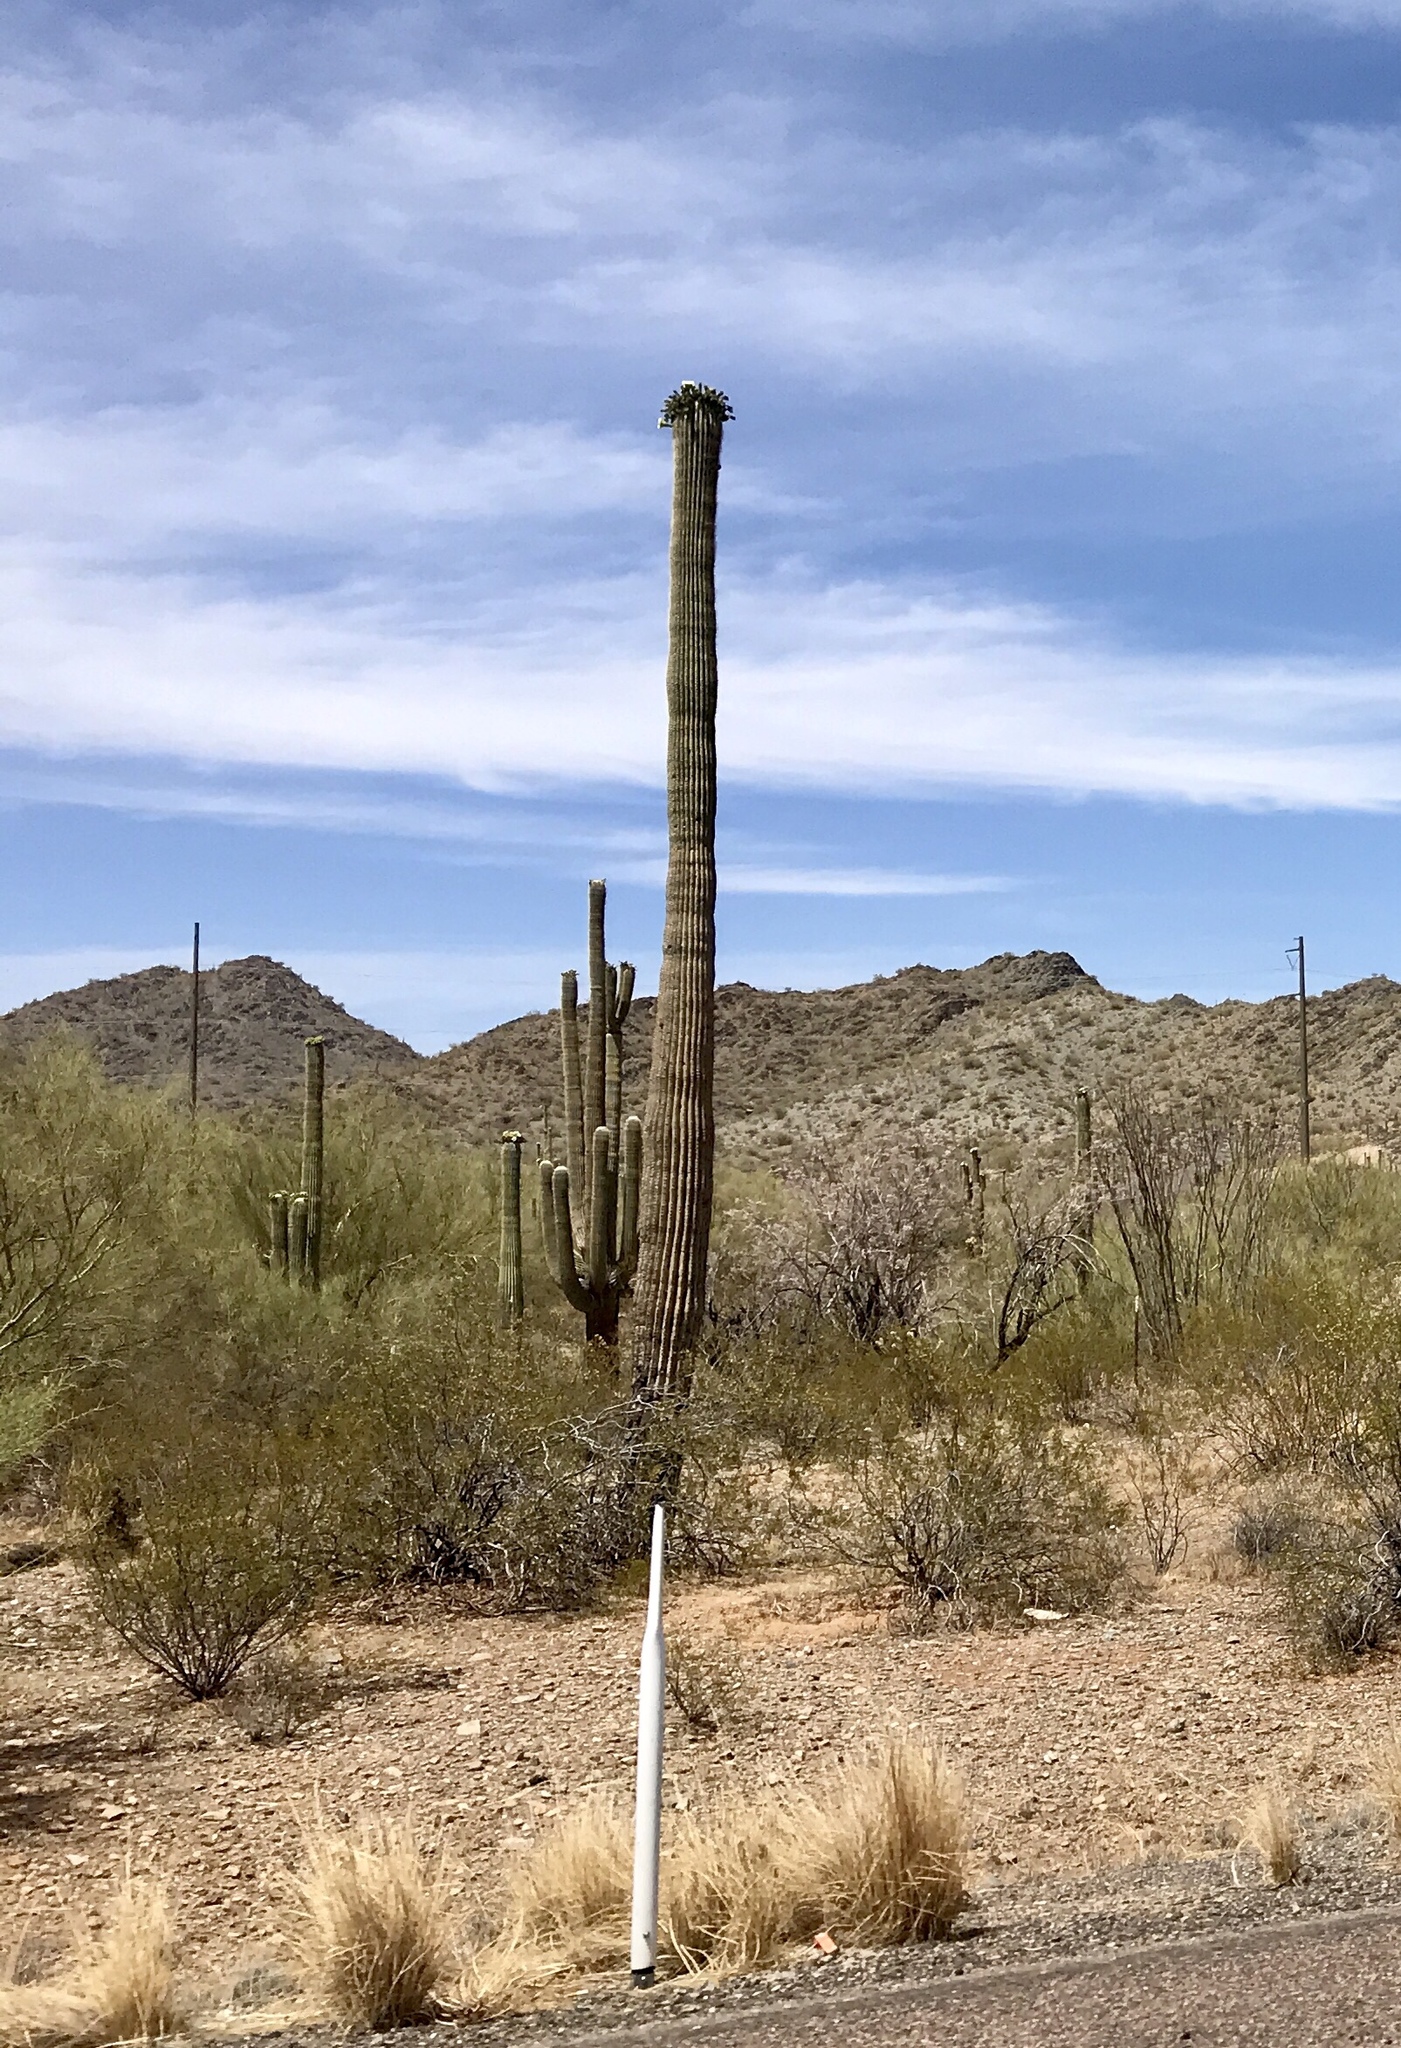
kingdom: Plantae
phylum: Tracheophyta
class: Magnoliopsida
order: Caryophyllales
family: Cactaceae
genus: Carnegiea
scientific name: Carnegiea gigantea
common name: Saguaro
